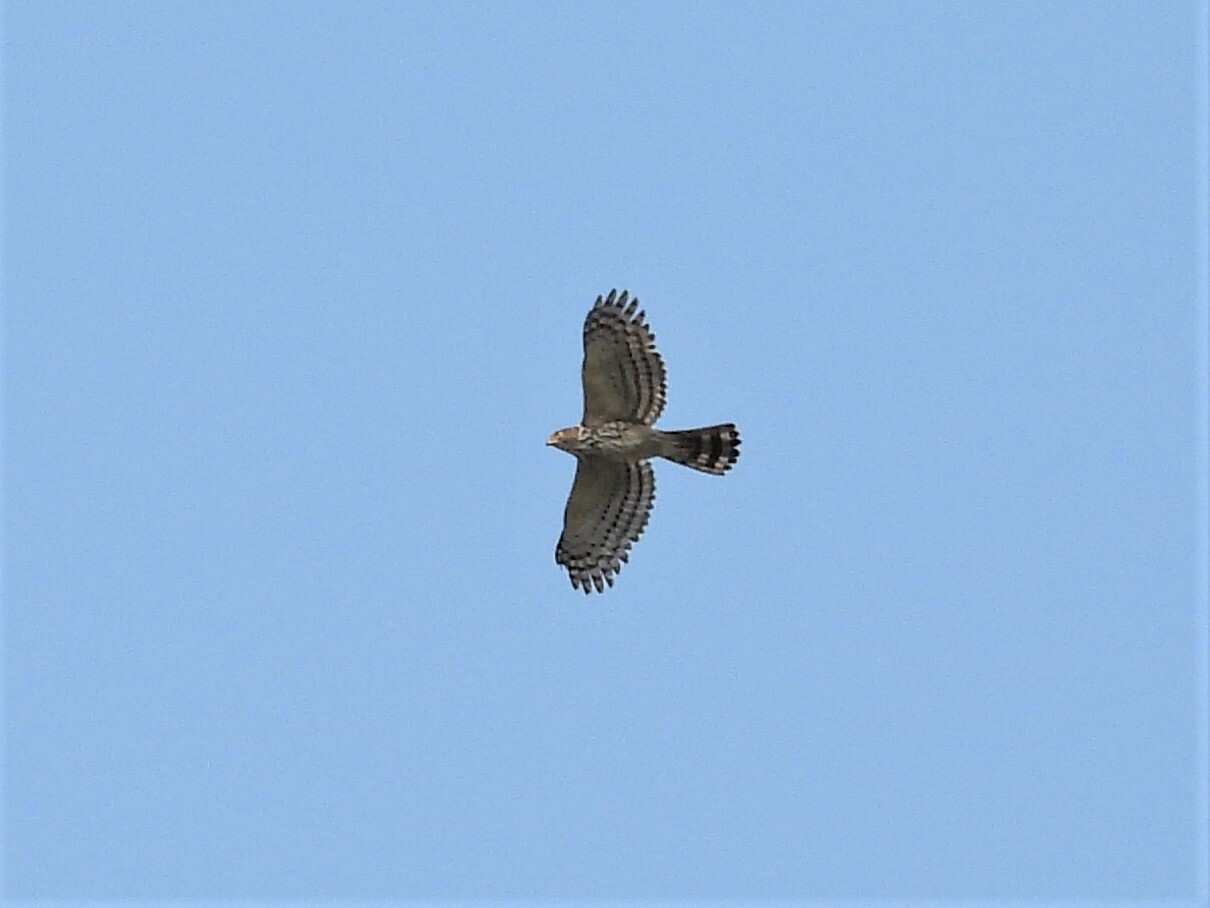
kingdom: Animalia
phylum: Chordata
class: Aves
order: Accipitriformes
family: Accipitridae
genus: Accipiter
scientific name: Accipiter trivirgatus
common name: Crested goshawk
